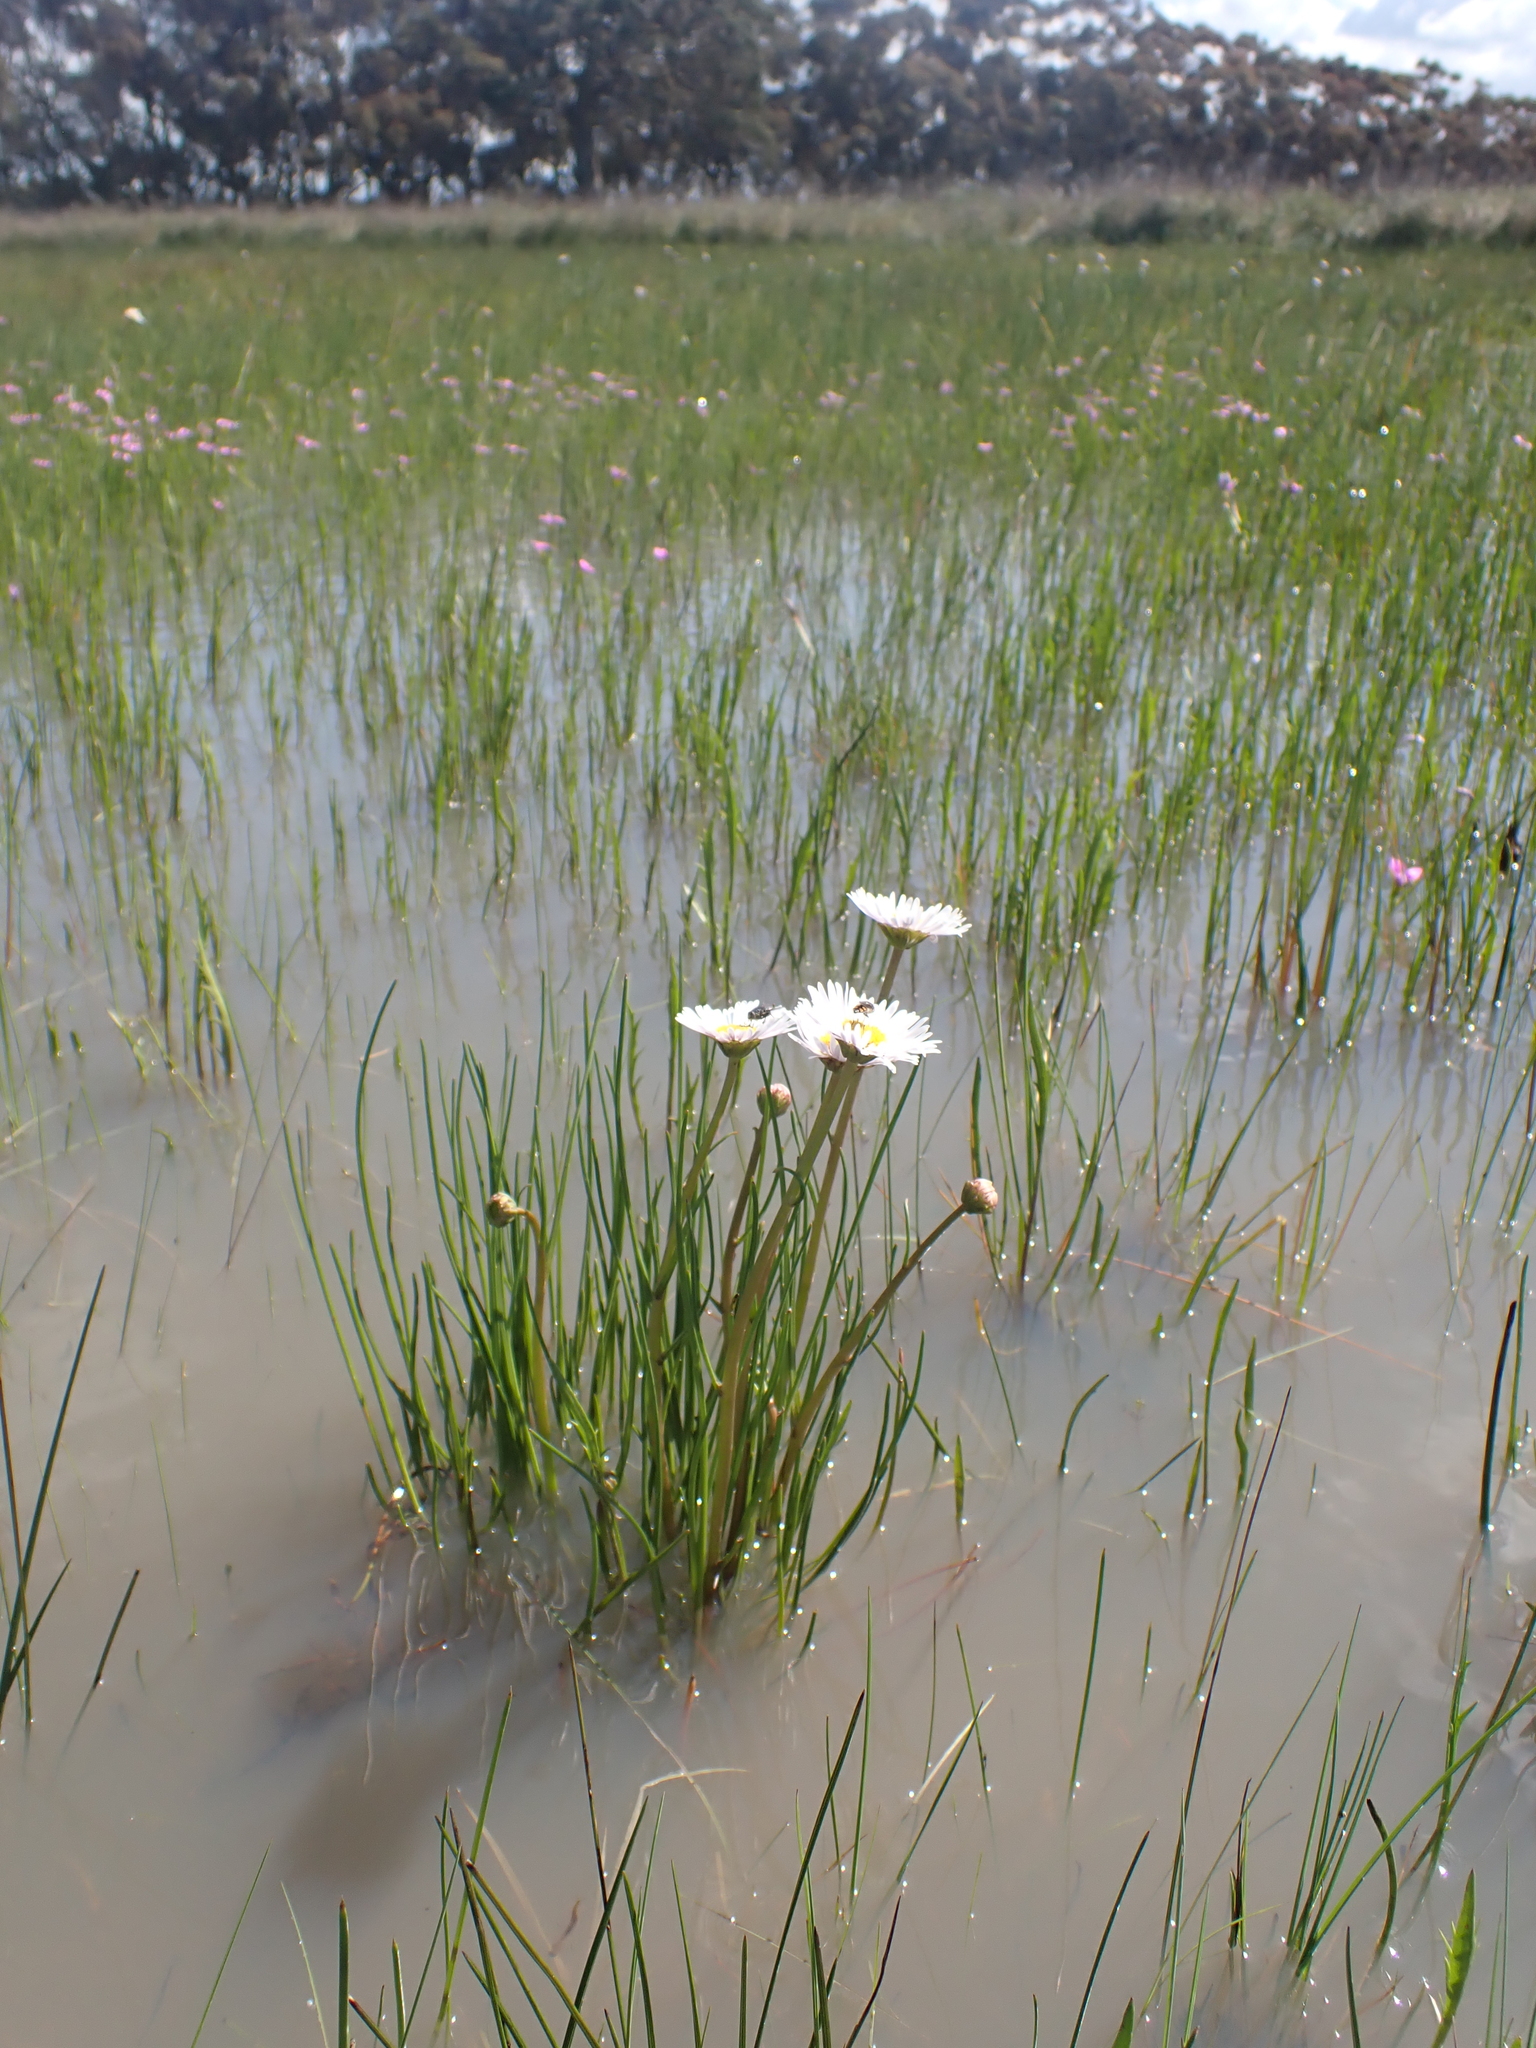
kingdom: Plantae
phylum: Tracheophyta
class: Magnoliopsida
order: Asterales
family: Asteraceae
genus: Allittia
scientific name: Allittia cardiocarpa
